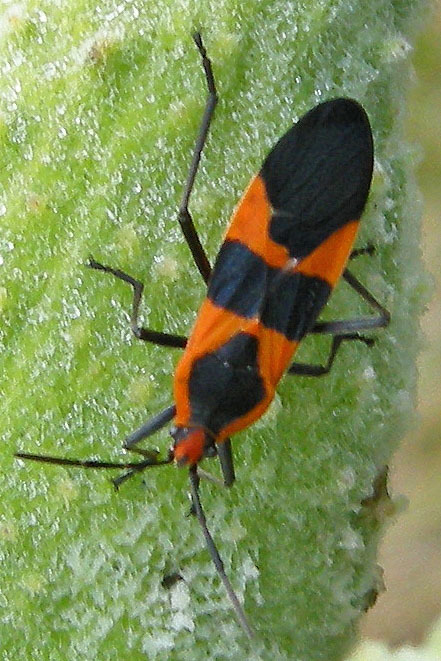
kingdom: Animalia
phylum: Arthropoda
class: Insecta
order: Hemiptera
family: Lygaeidae
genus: Oncopeltus
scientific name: Oncopeltus fasciatus
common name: Large milkweed bug
